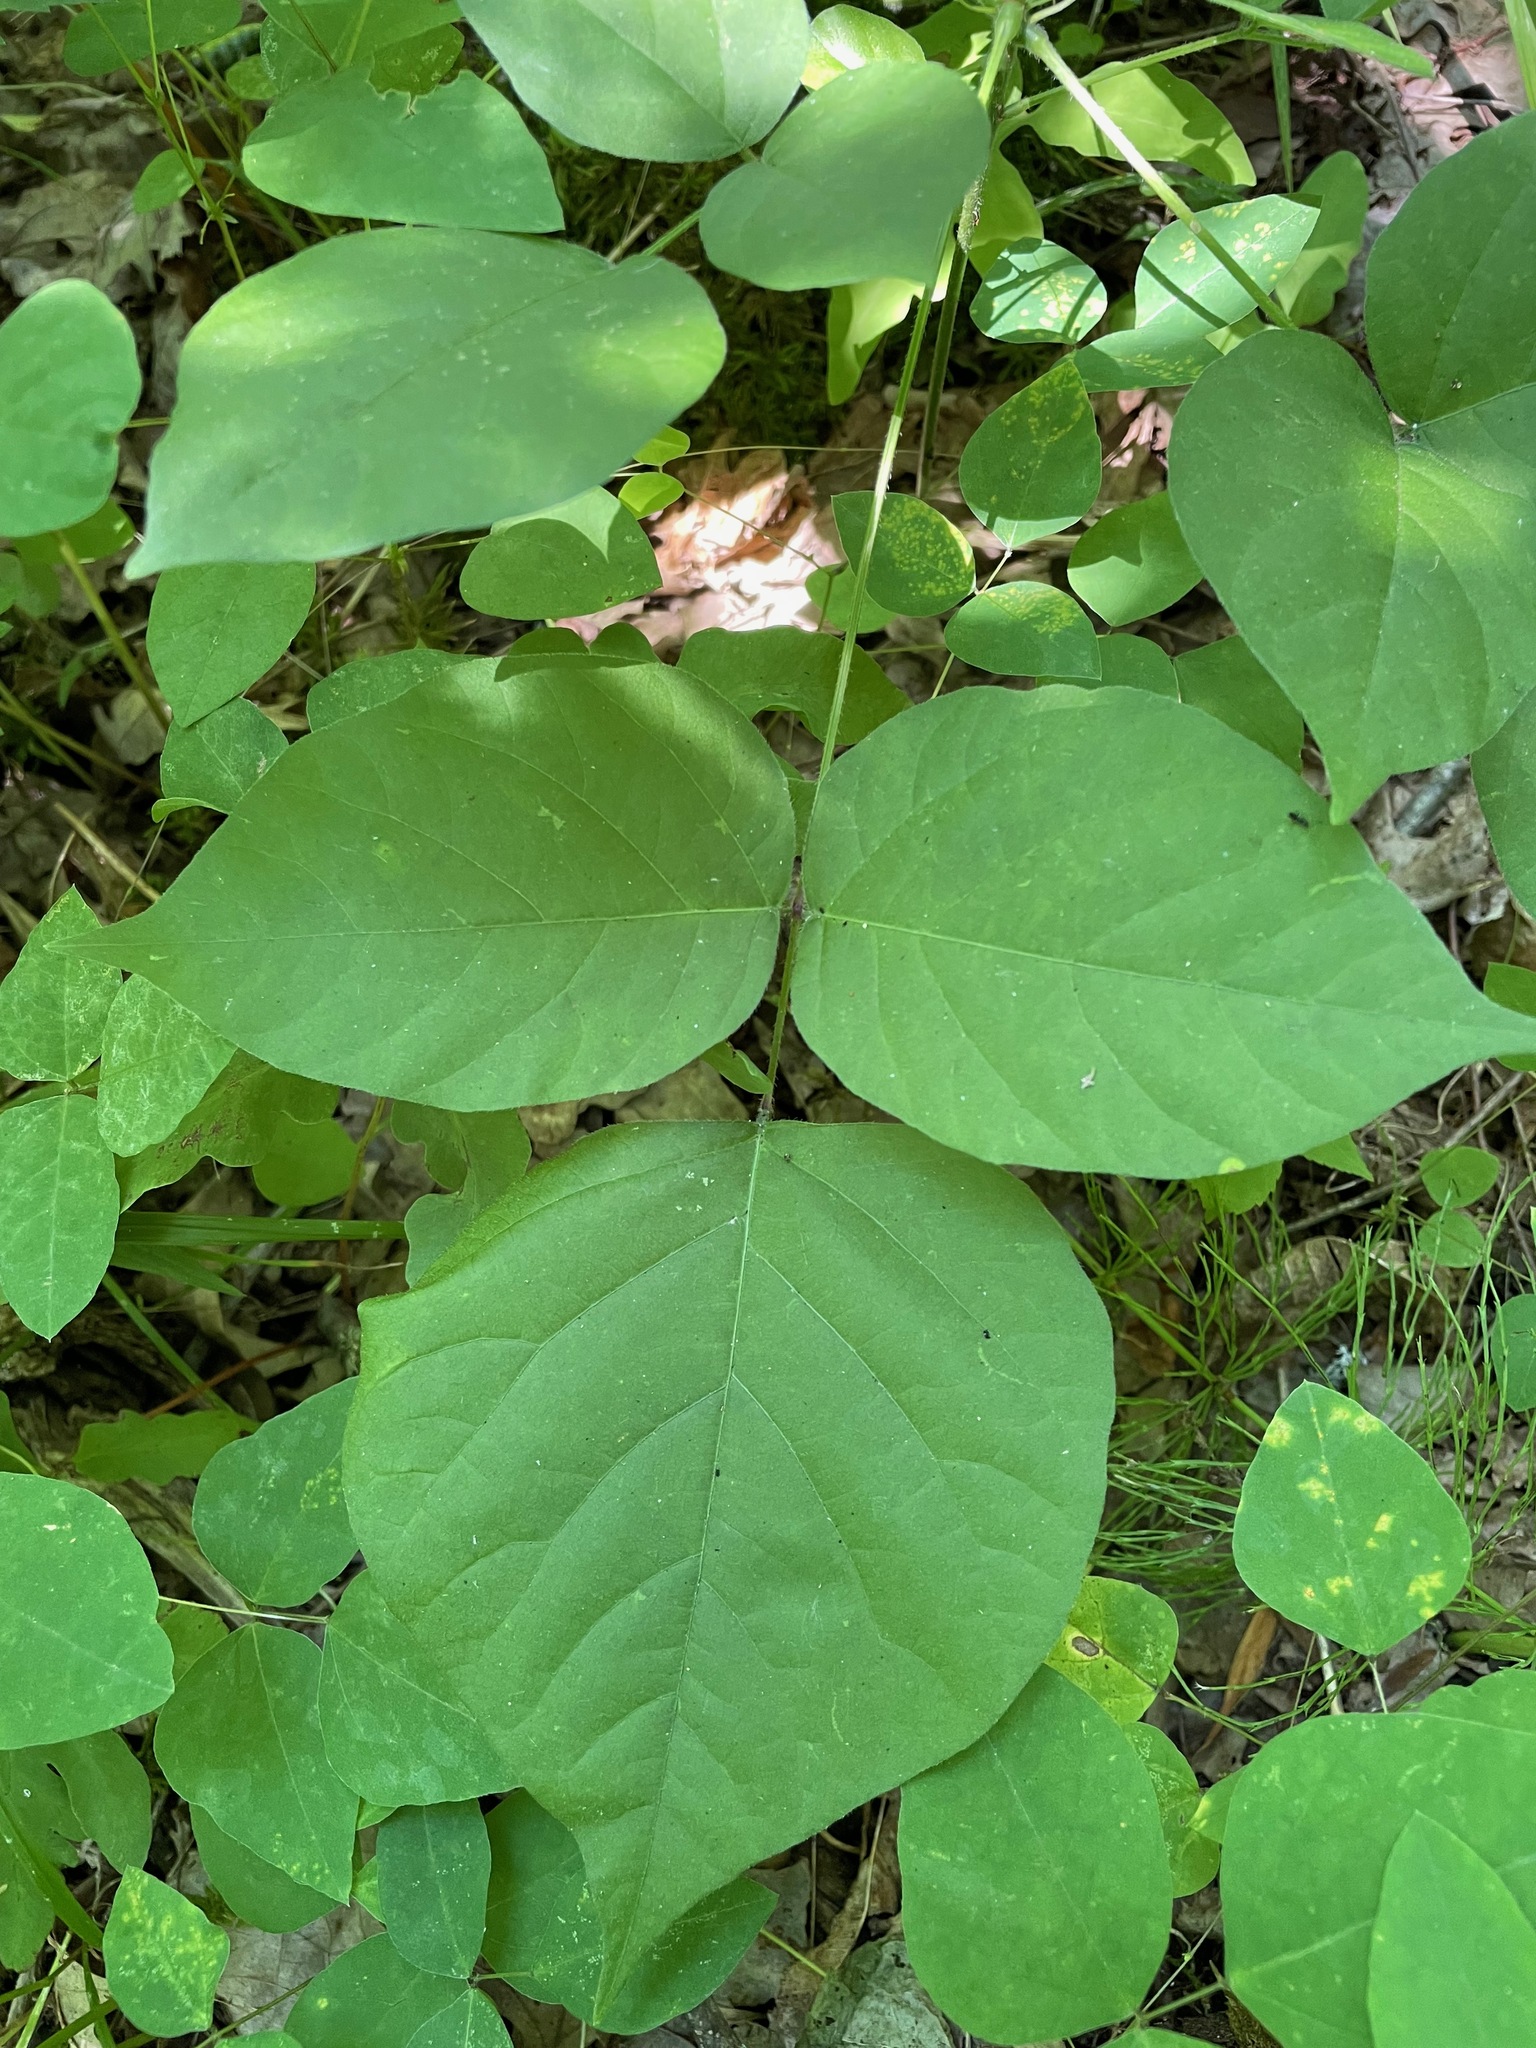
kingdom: Plantae
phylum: Tracheophyta
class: Magnoliopsida
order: Fabales
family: Fabaceae
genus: Hylodesmum
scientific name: Hylodesmum glutinosum
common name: Clustered-leaved tick-trefoil
